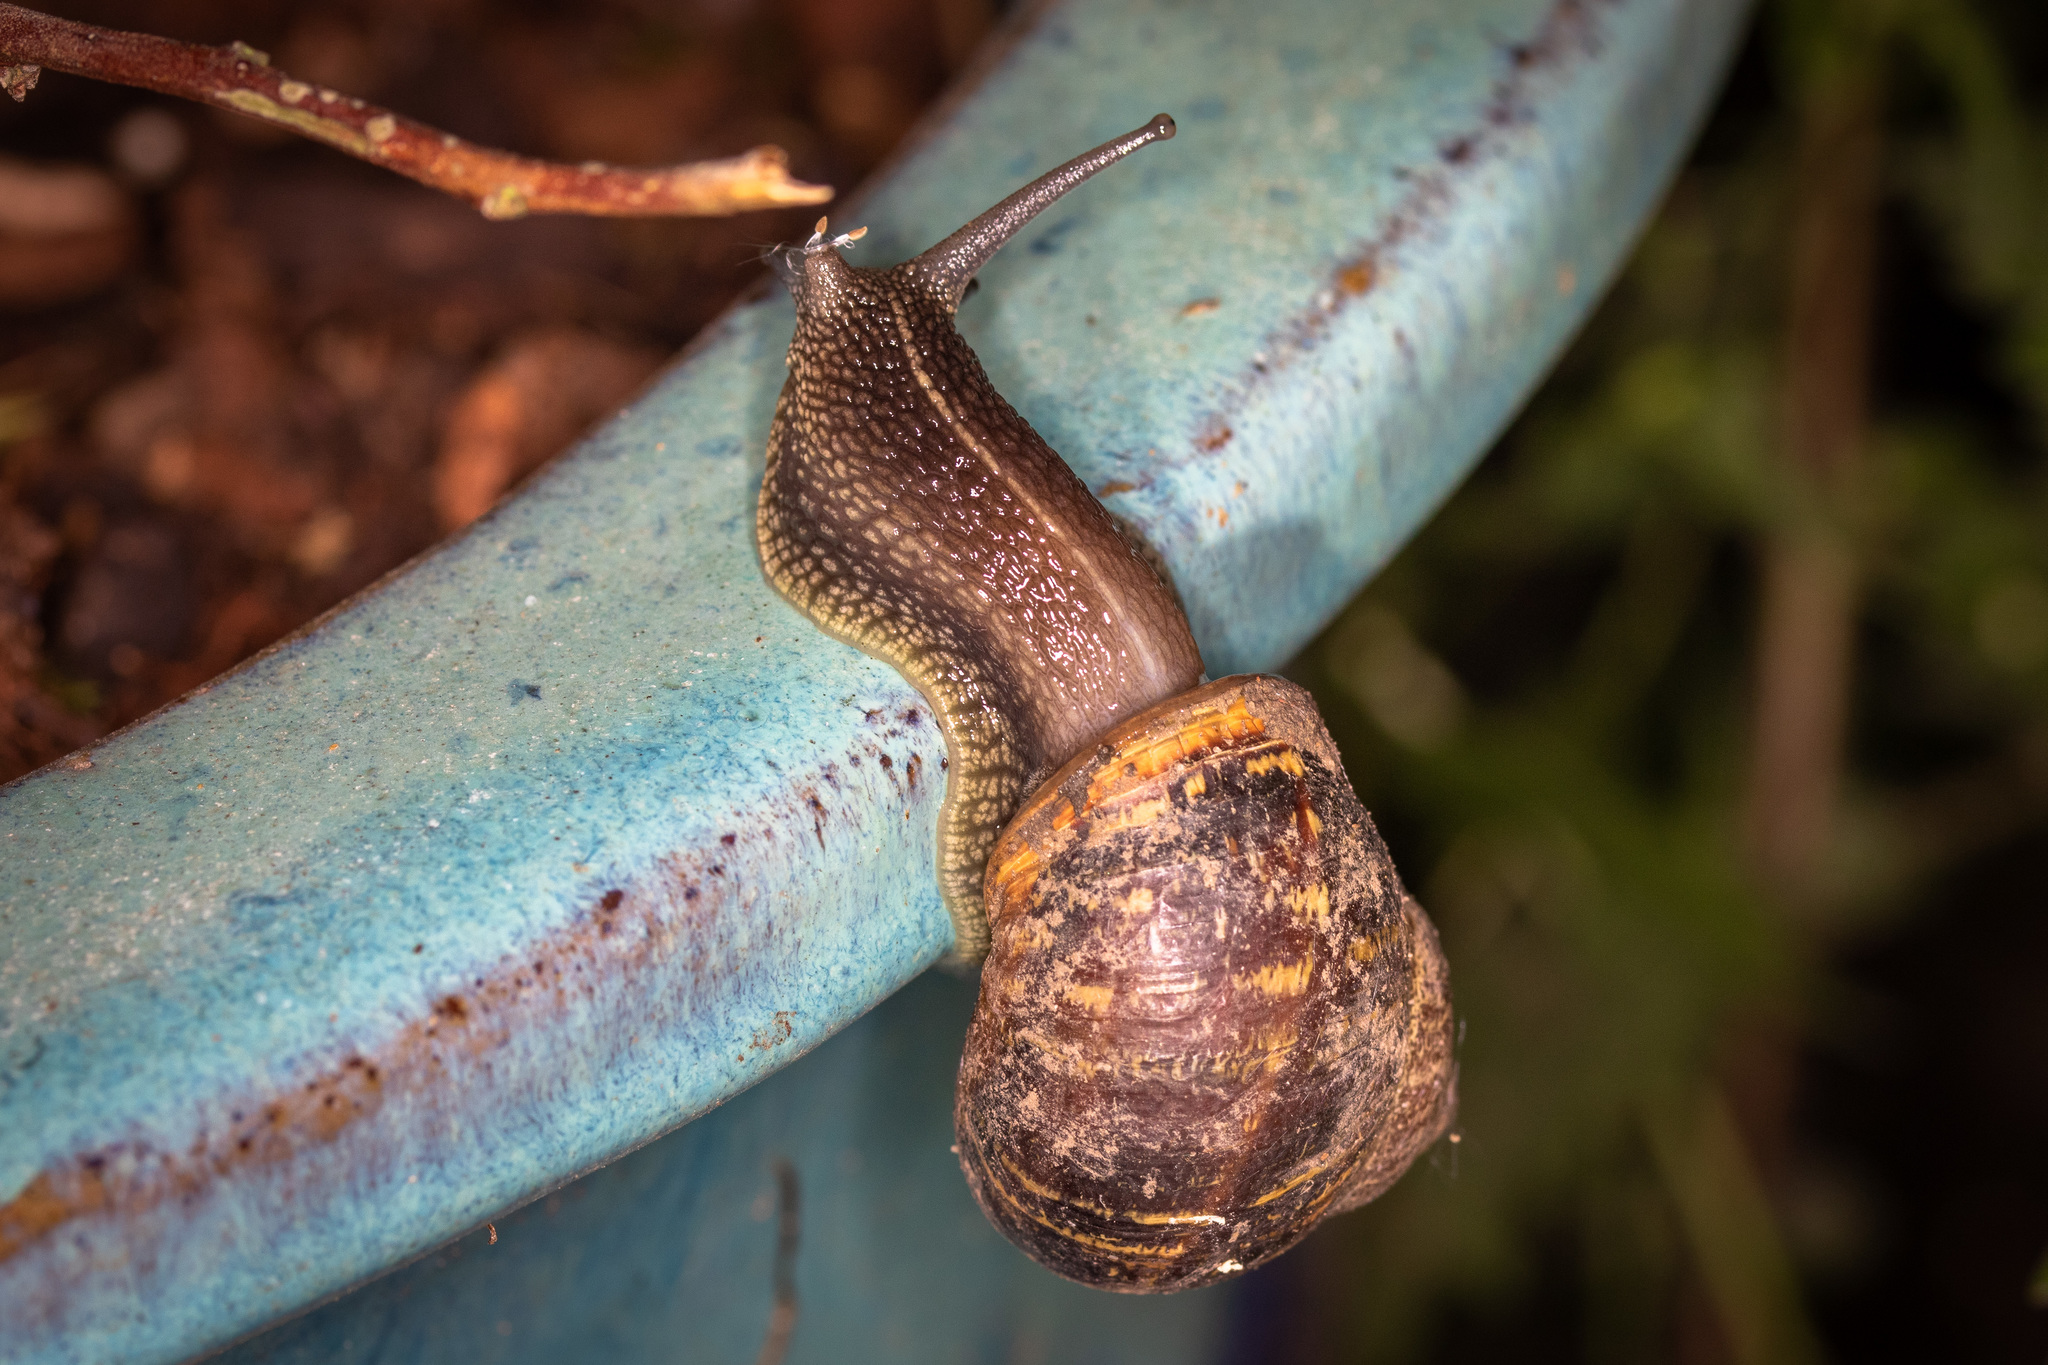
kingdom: Animalia
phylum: Mollusca
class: Gastropoda
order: Stylommatophora
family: Helicidae
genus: Cornu
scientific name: Cornu aspersum
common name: Brown garden snail
